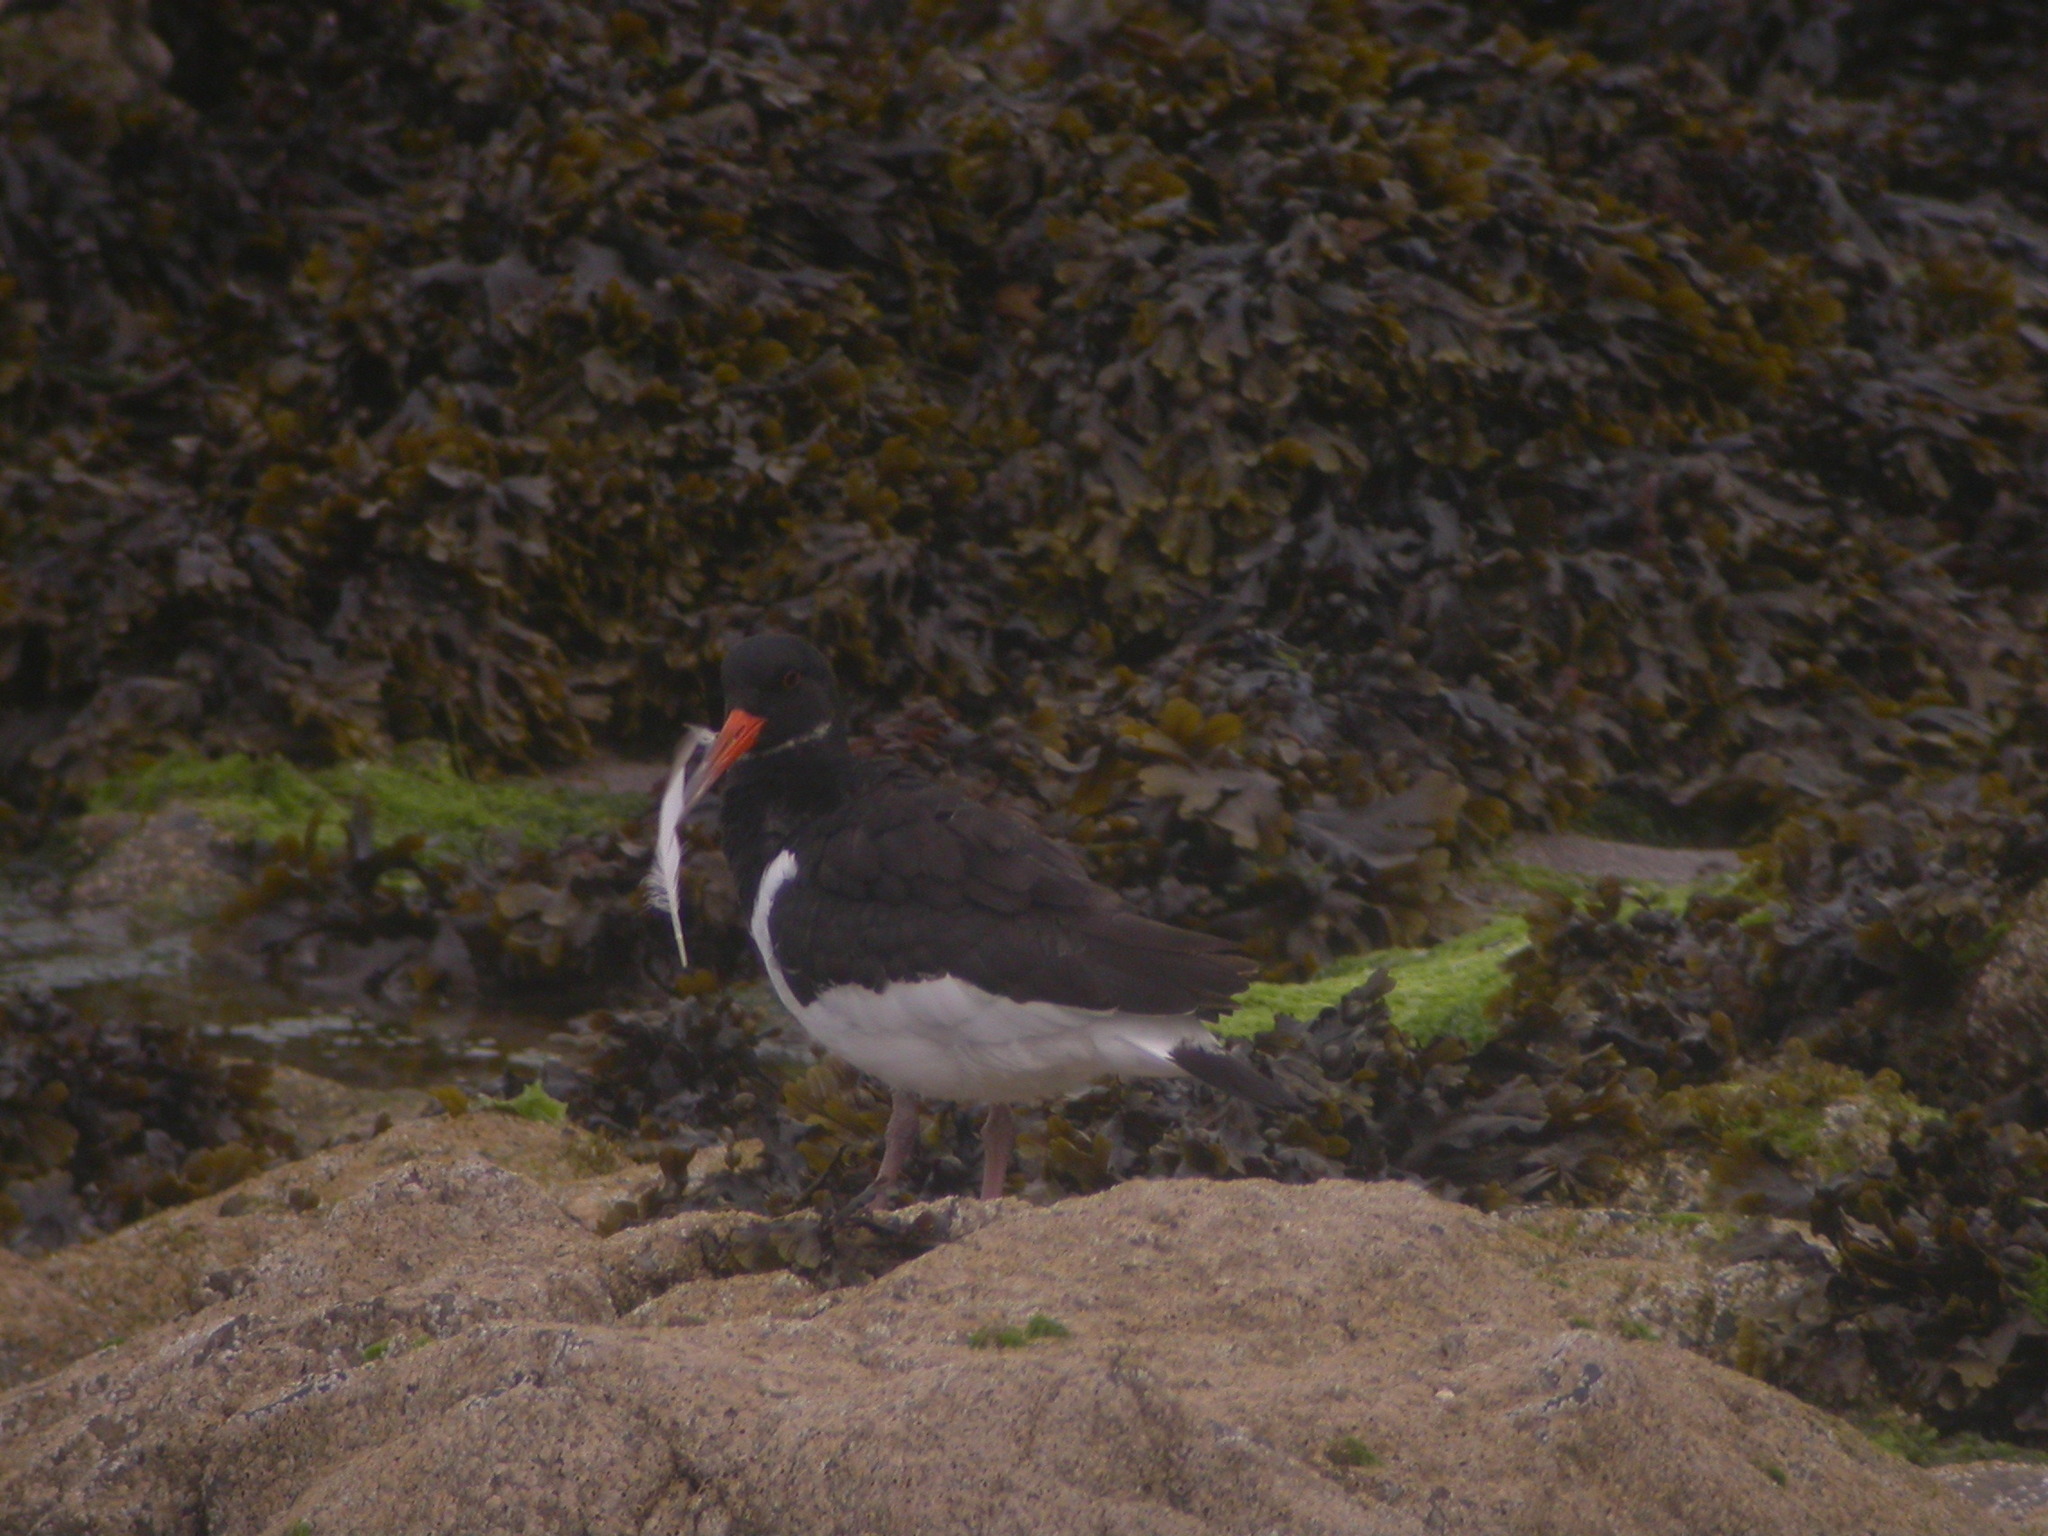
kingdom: Animalia
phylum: Chordata
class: Aves
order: Charadriiformes
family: Haematopodidae
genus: Haematopus
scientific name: Haematopus ostralegus
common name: Eurasian oystercatcher
